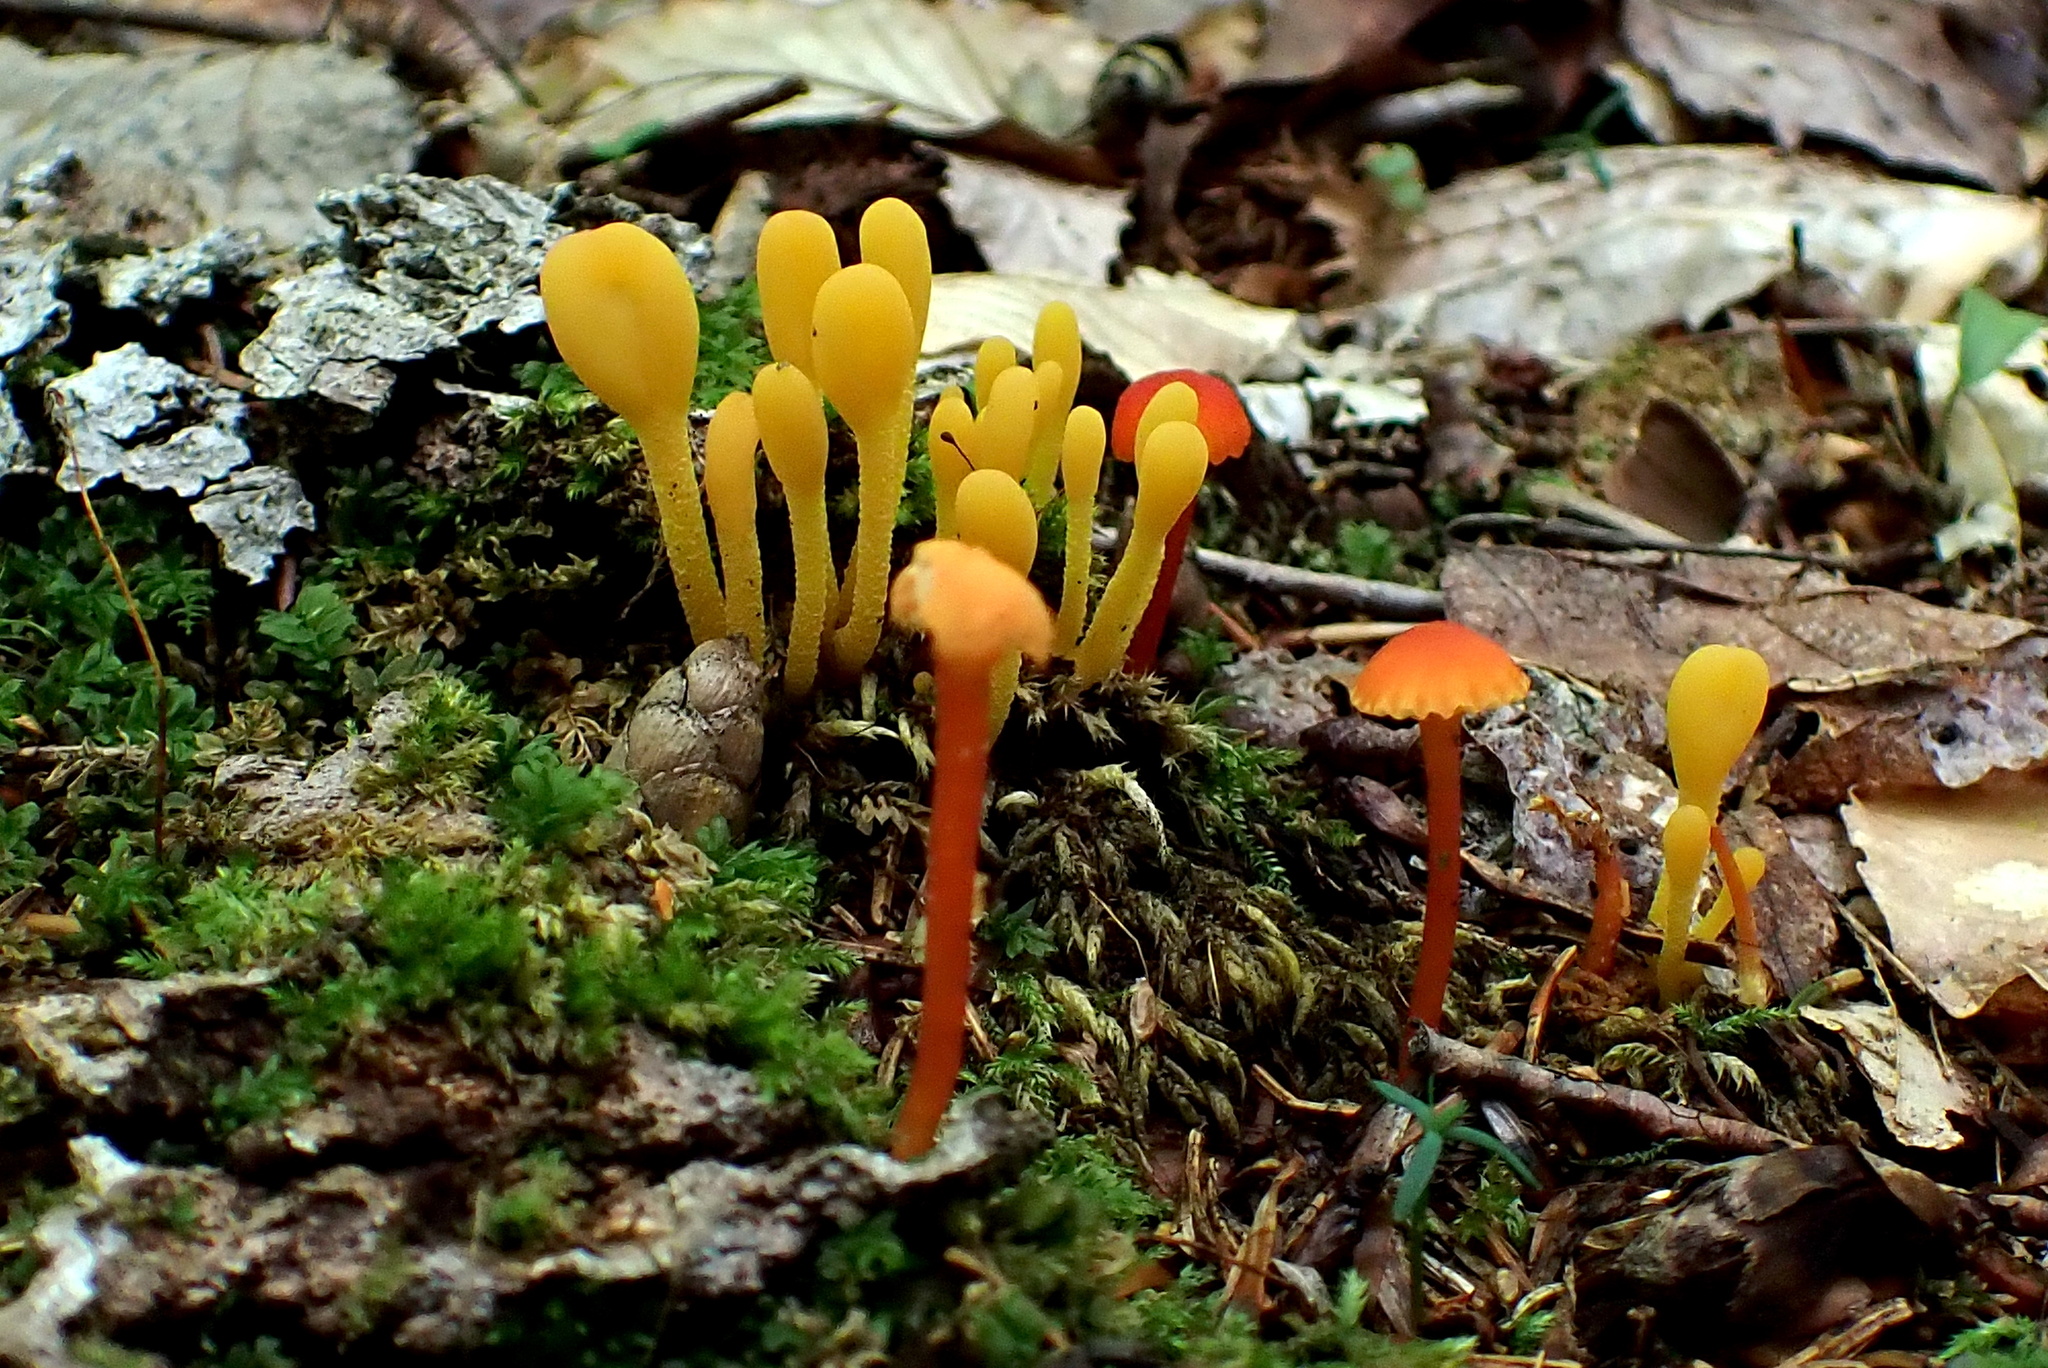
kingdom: Fungi
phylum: Ascomycota
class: Leotiomycetes
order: Leotiales
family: Leotiaceae
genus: Microglossum
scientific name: Microglossum rufum
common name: Orange earthtongue
